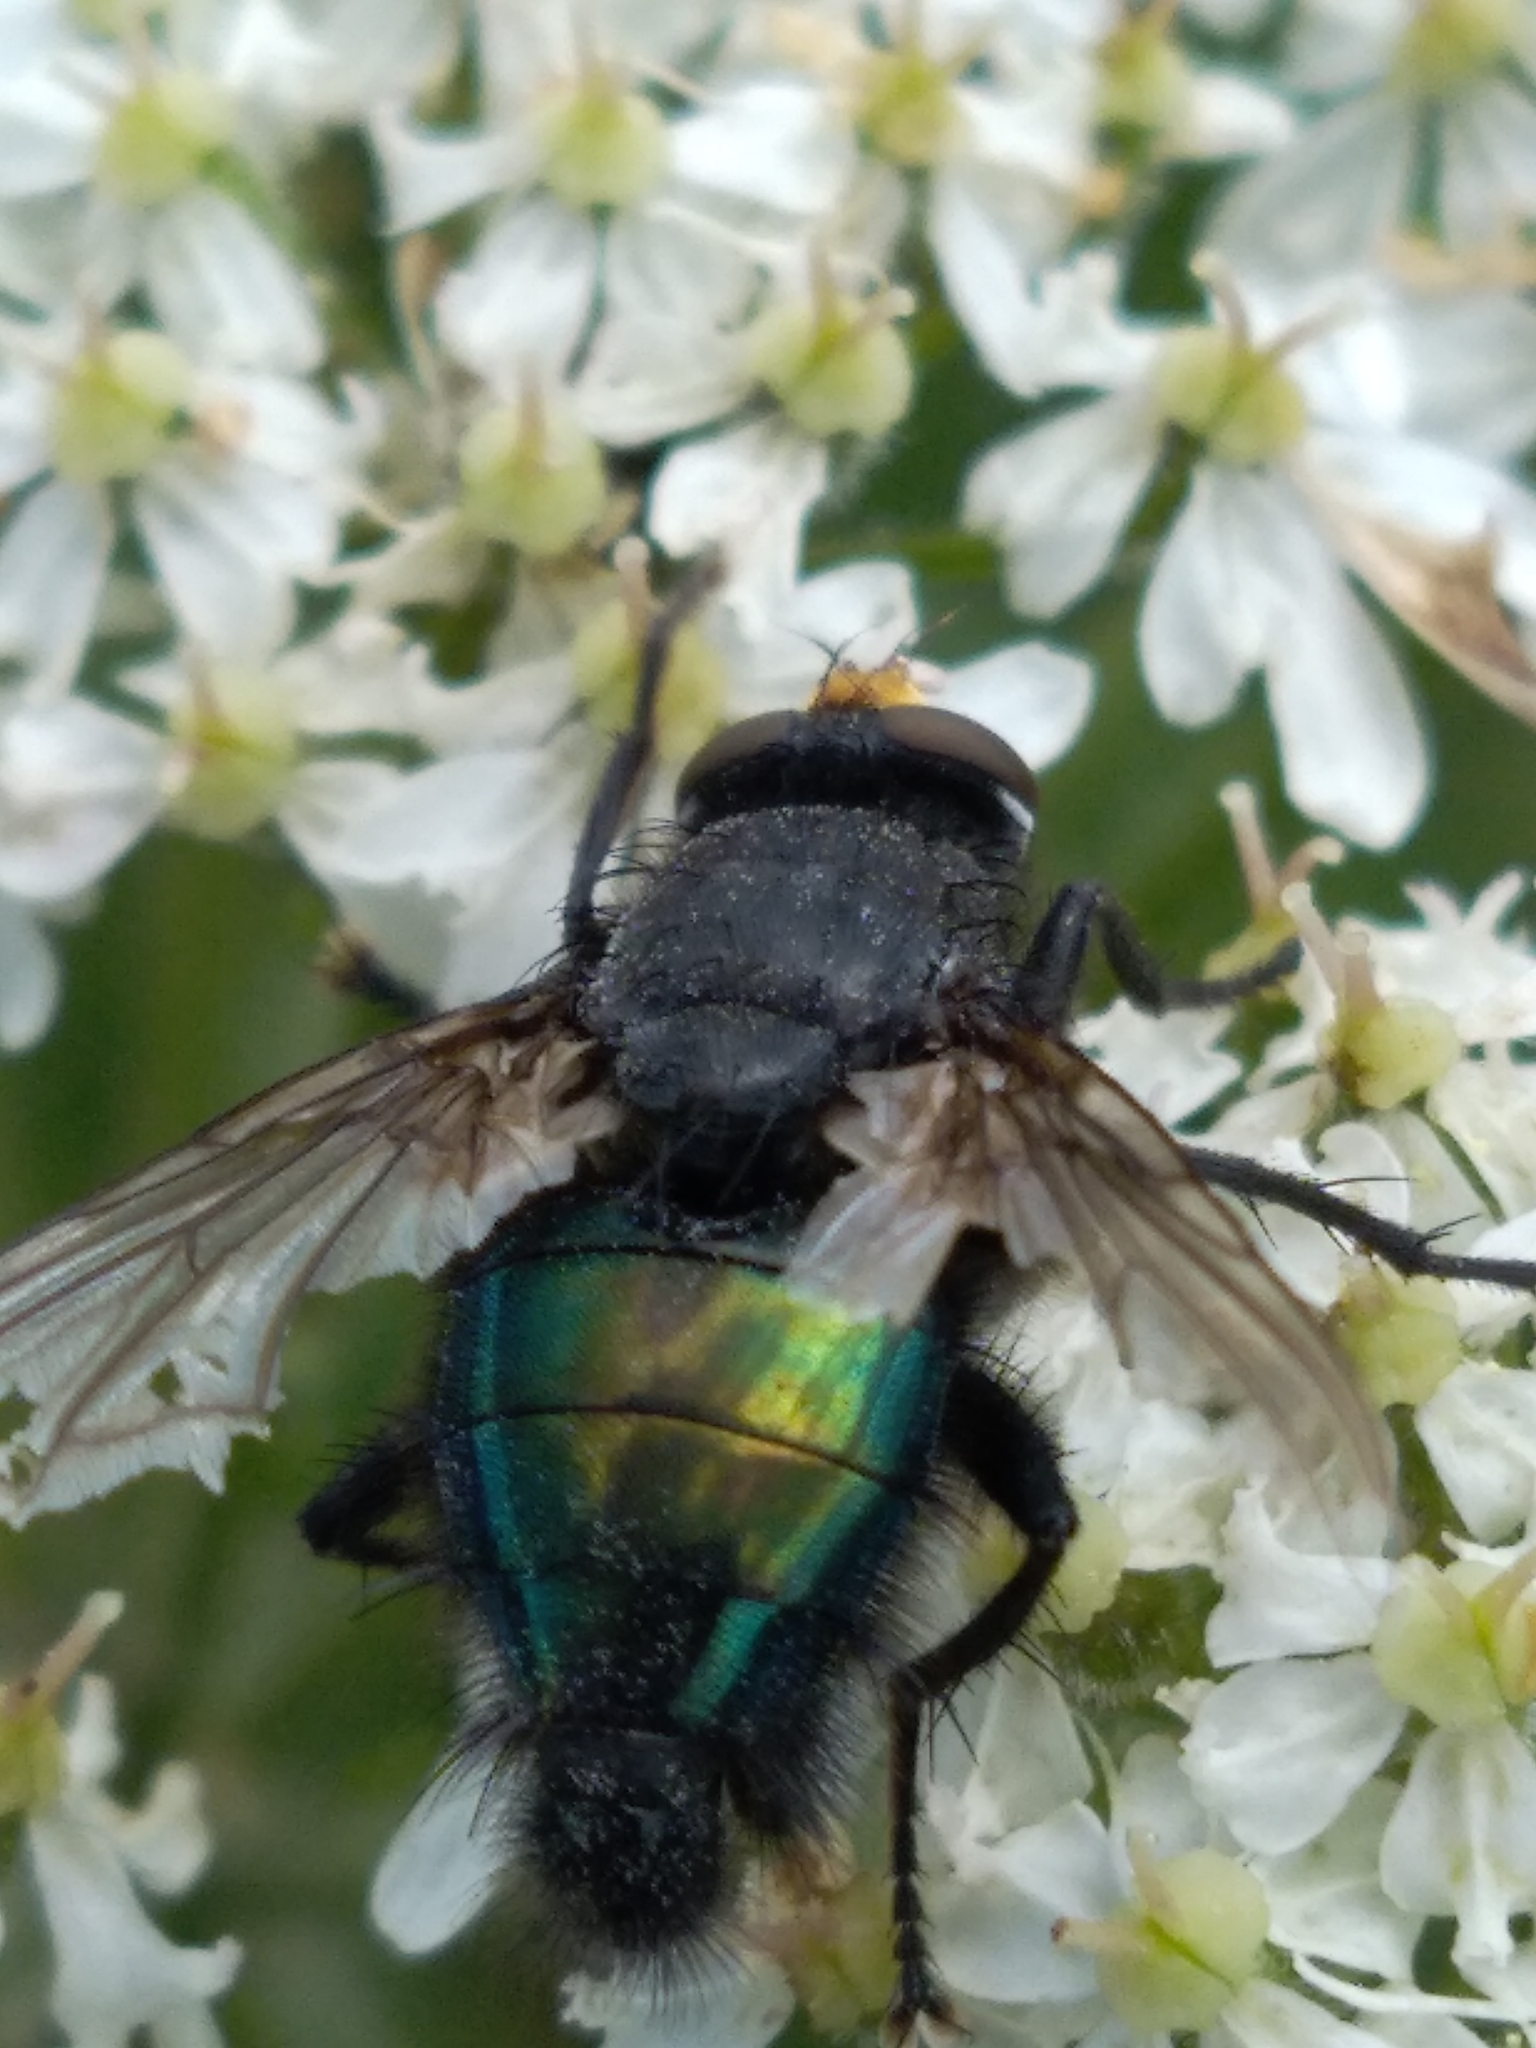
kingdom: Animalia
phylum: Arthropoda
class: Insecta
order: Diptera
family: Calliphoridae
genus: Cynomya
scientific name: Cynomya mortuorum
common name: Bluebottle blow fly
